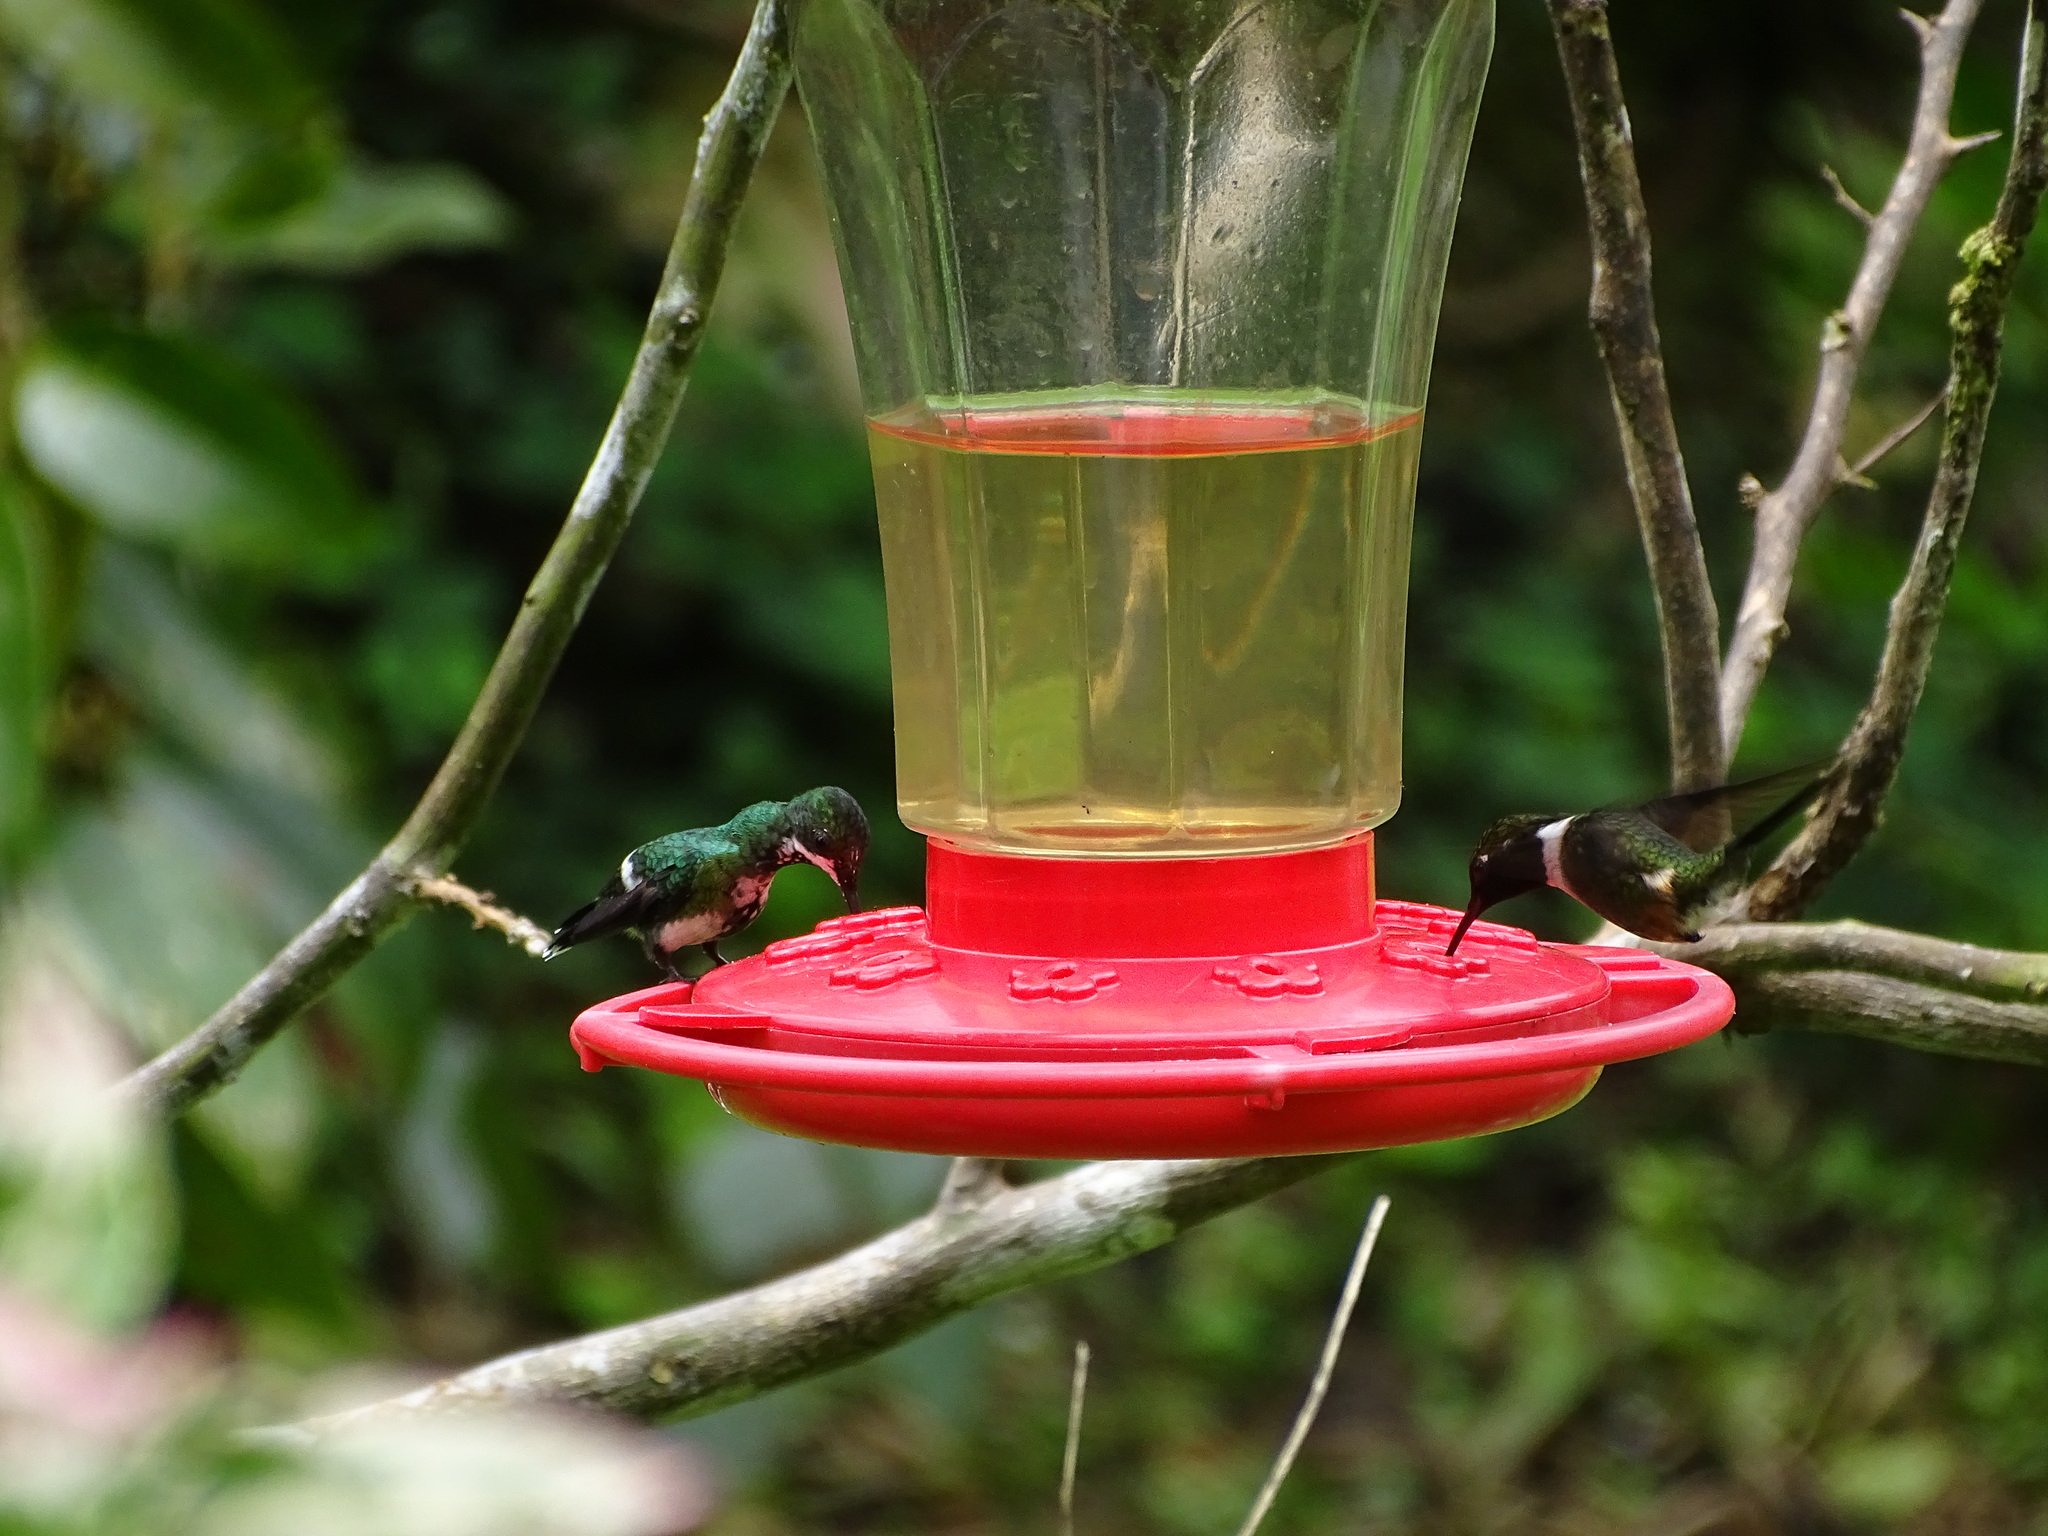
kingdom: Animalia
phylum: Chordata
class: Aves
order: Apodiformes
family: Trochilidae
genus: Discosura
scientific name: Discosura conversii
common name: Green thorntail
